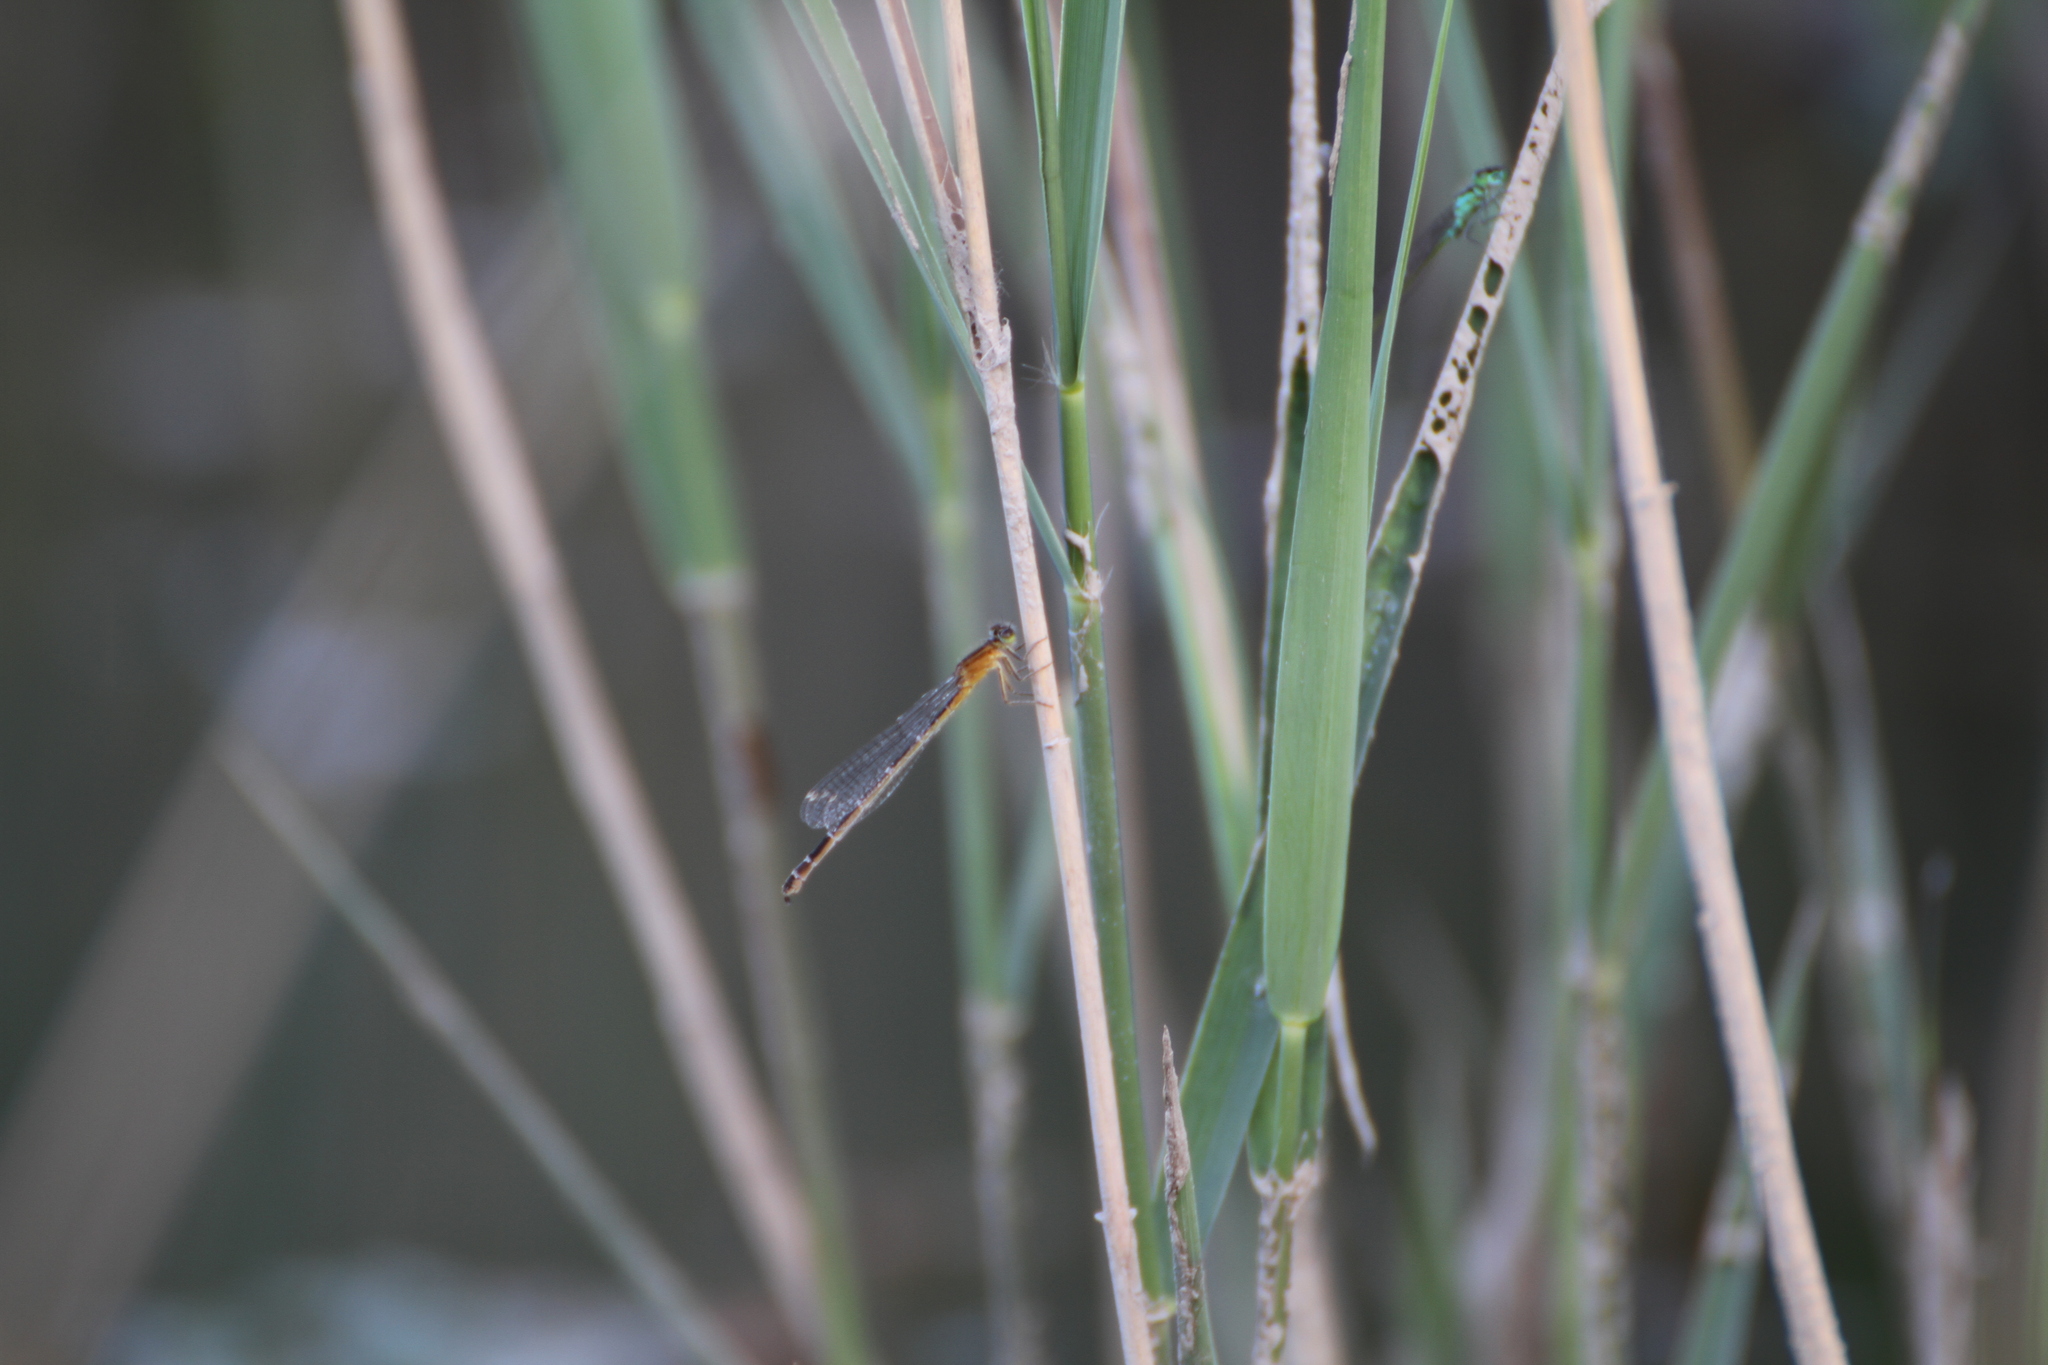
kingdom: Animalia
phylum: Arthropoda
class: Insecta
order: Odonata
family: Coenagrionidae
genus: Ischnura
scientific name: Ischnura pumilio
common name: Scarce blue-tailed damselfly
